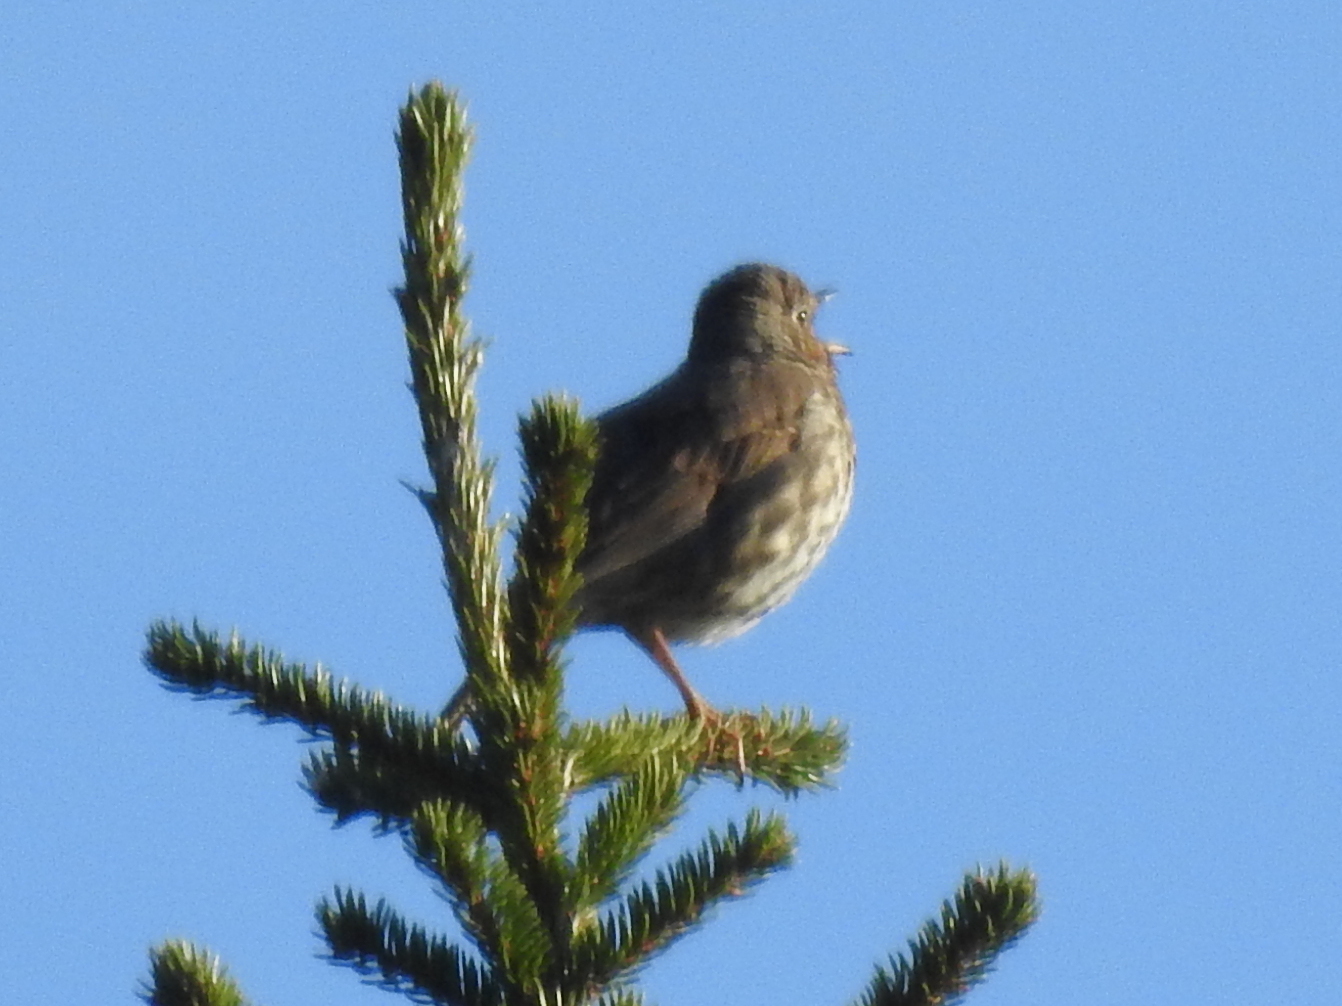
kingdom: Animalia
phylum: Chordata
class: Aves
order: Passeriformes
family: Turdidae
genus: Turdus
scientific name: Turdus philomelos
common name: Song thrush
